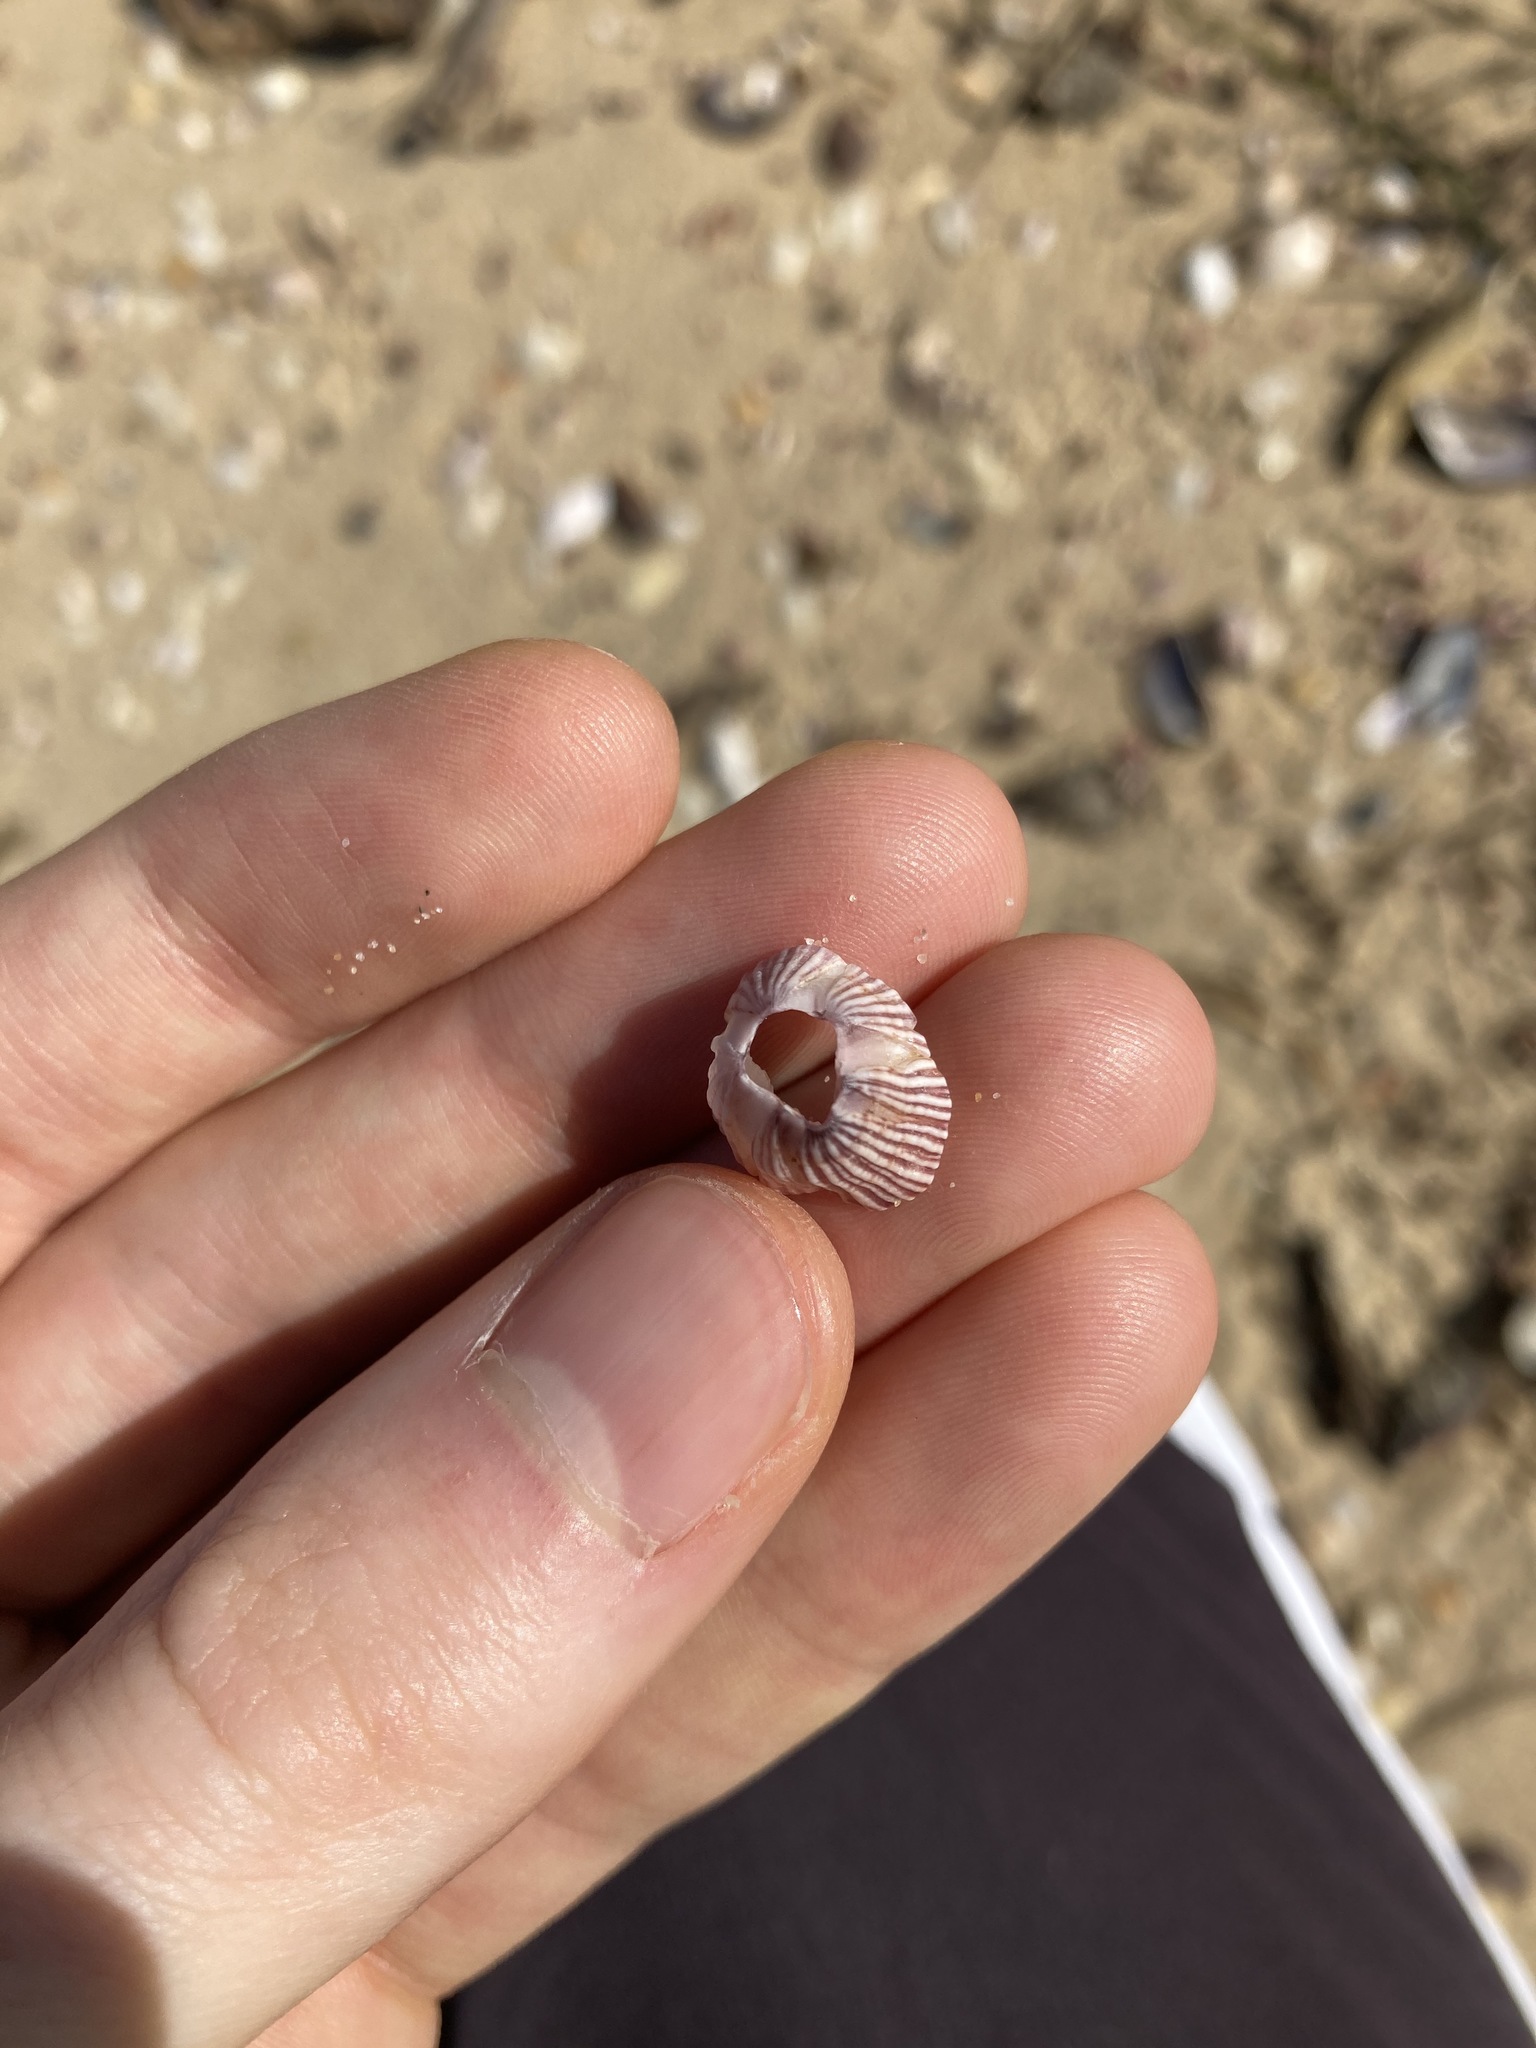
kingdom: Animalia
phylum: Arthropoda
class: Maxillopoda
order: Sessilia
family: Balanidae
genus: Balanus
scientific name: Balanus trigonus
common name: Triangle barnacle
